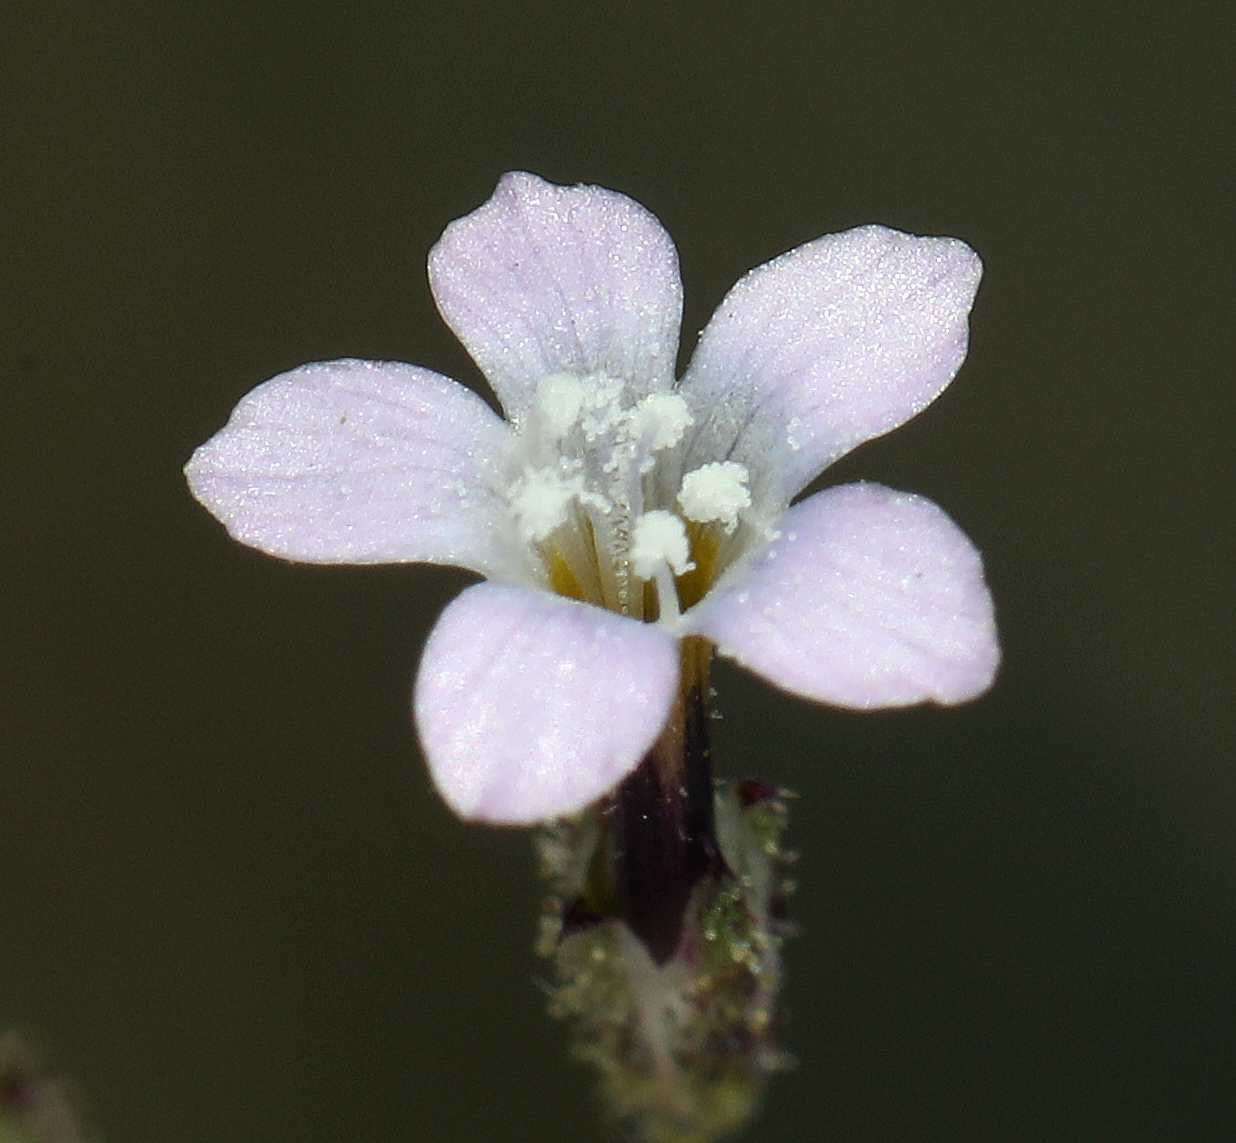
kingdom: Plantae
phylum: Tracheophyta
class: Magnoliopsida
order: Ericales
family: Polemoniaceae
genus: Gilia
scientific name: Gilia sinuata
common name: Rosy gilia
